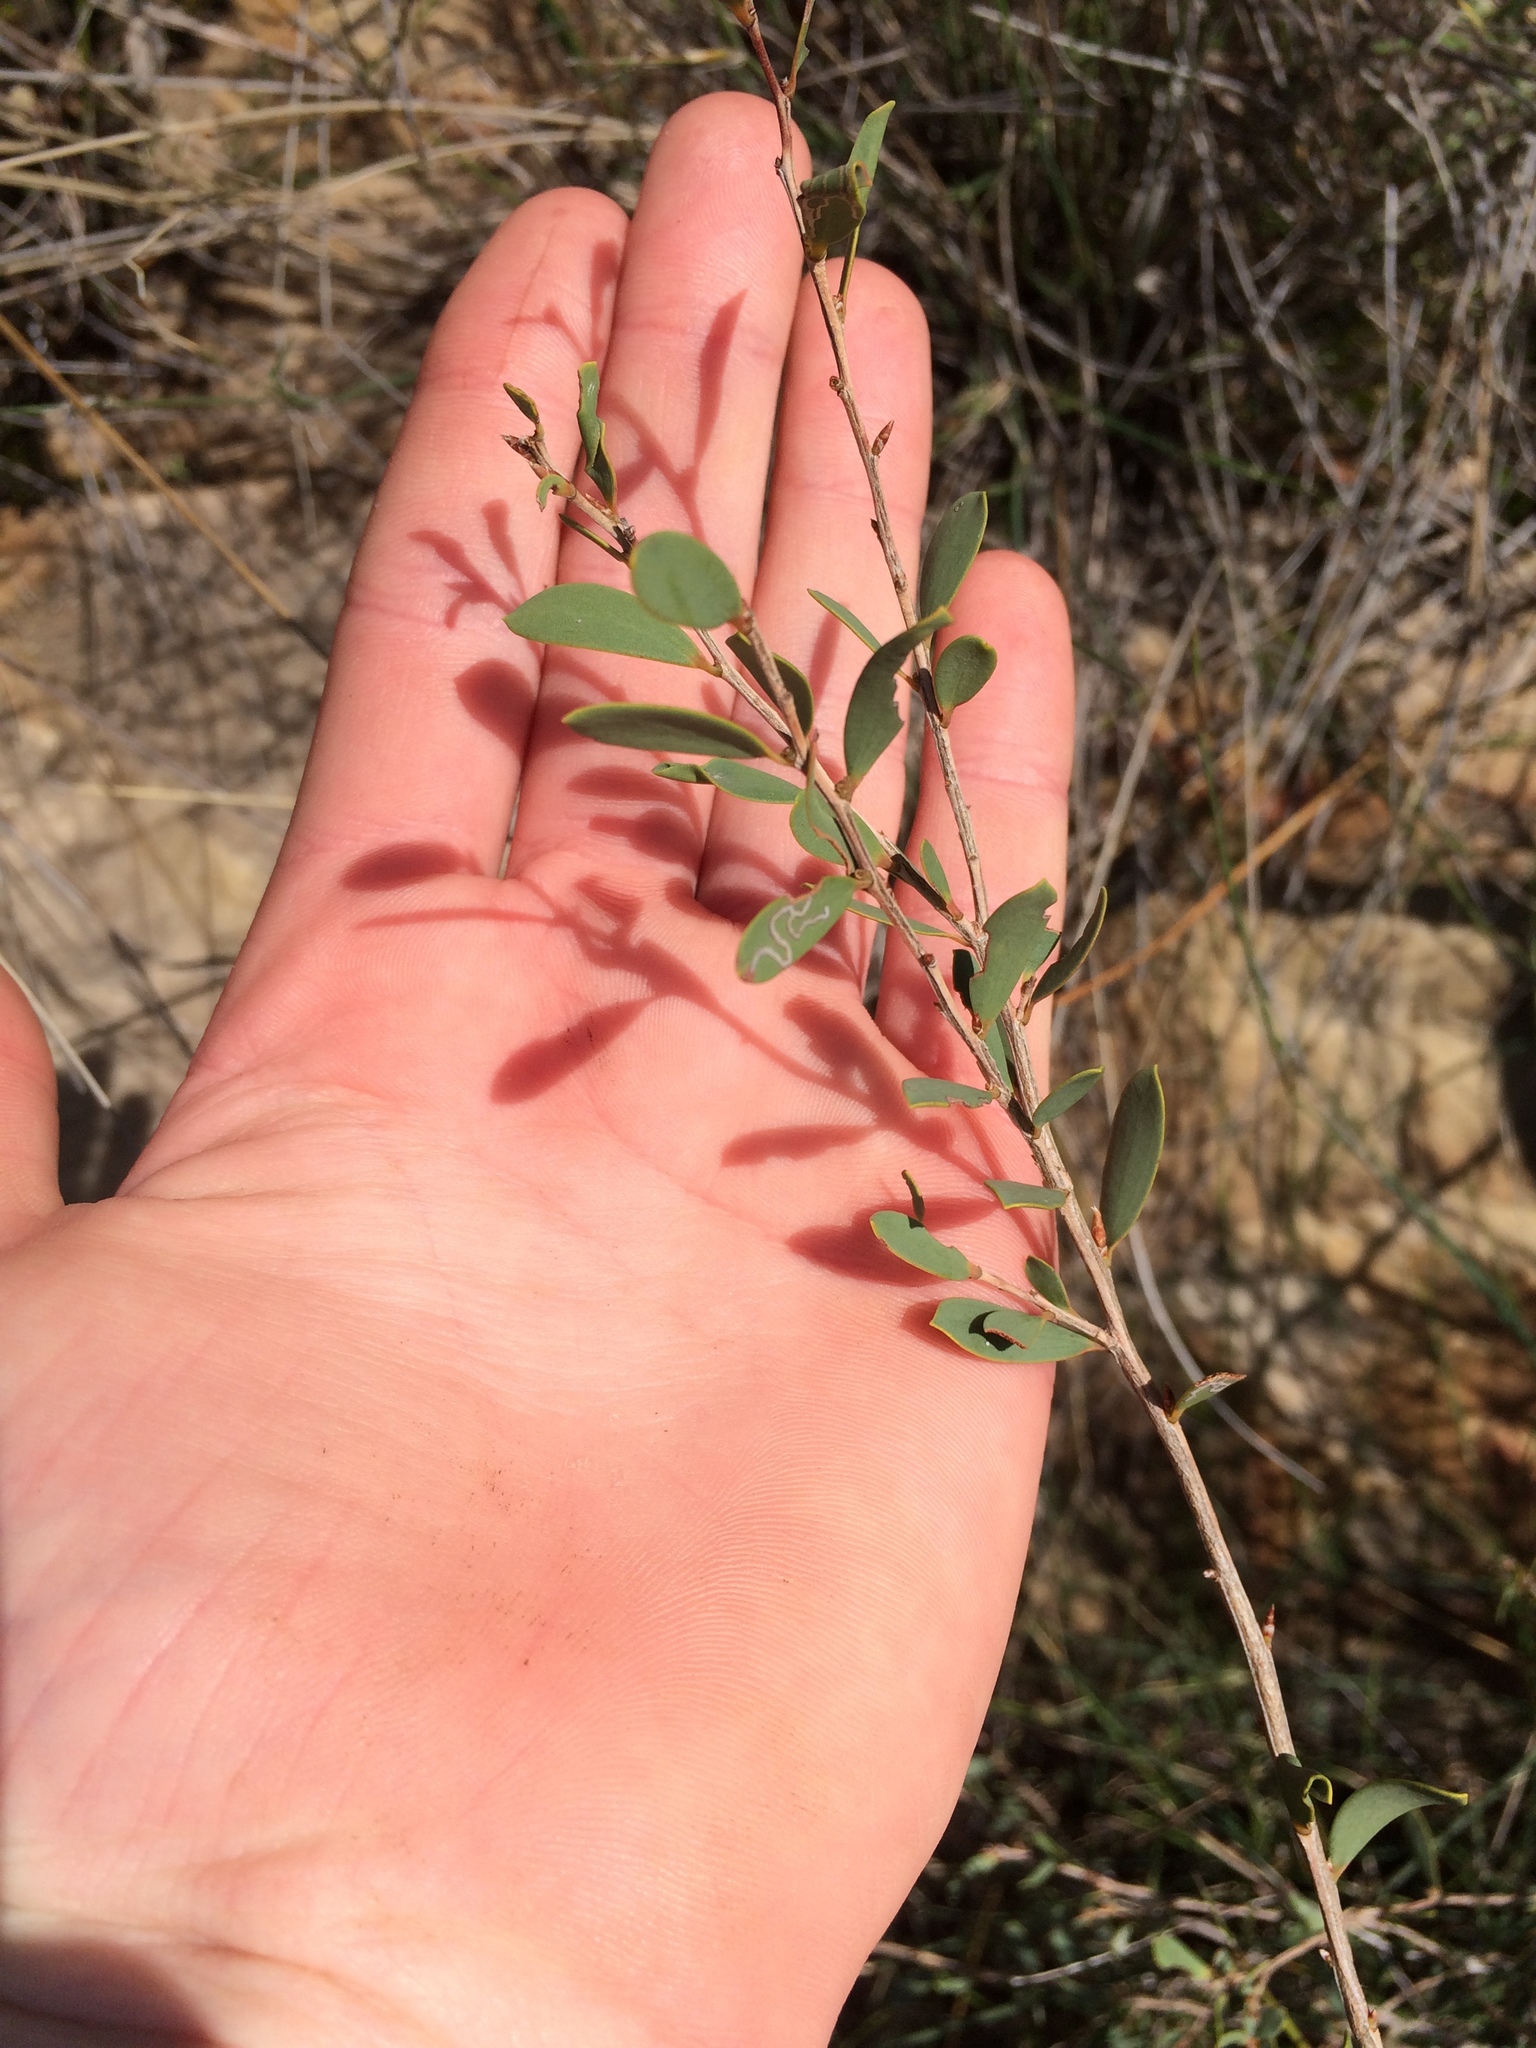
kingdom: Plantae
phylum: Tracheophyta
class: Magnoliopsida
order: Myrtales
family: Myrtaceae
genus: Leptospermum
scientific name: Leptospermum laevigatum
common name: Australian teatree
